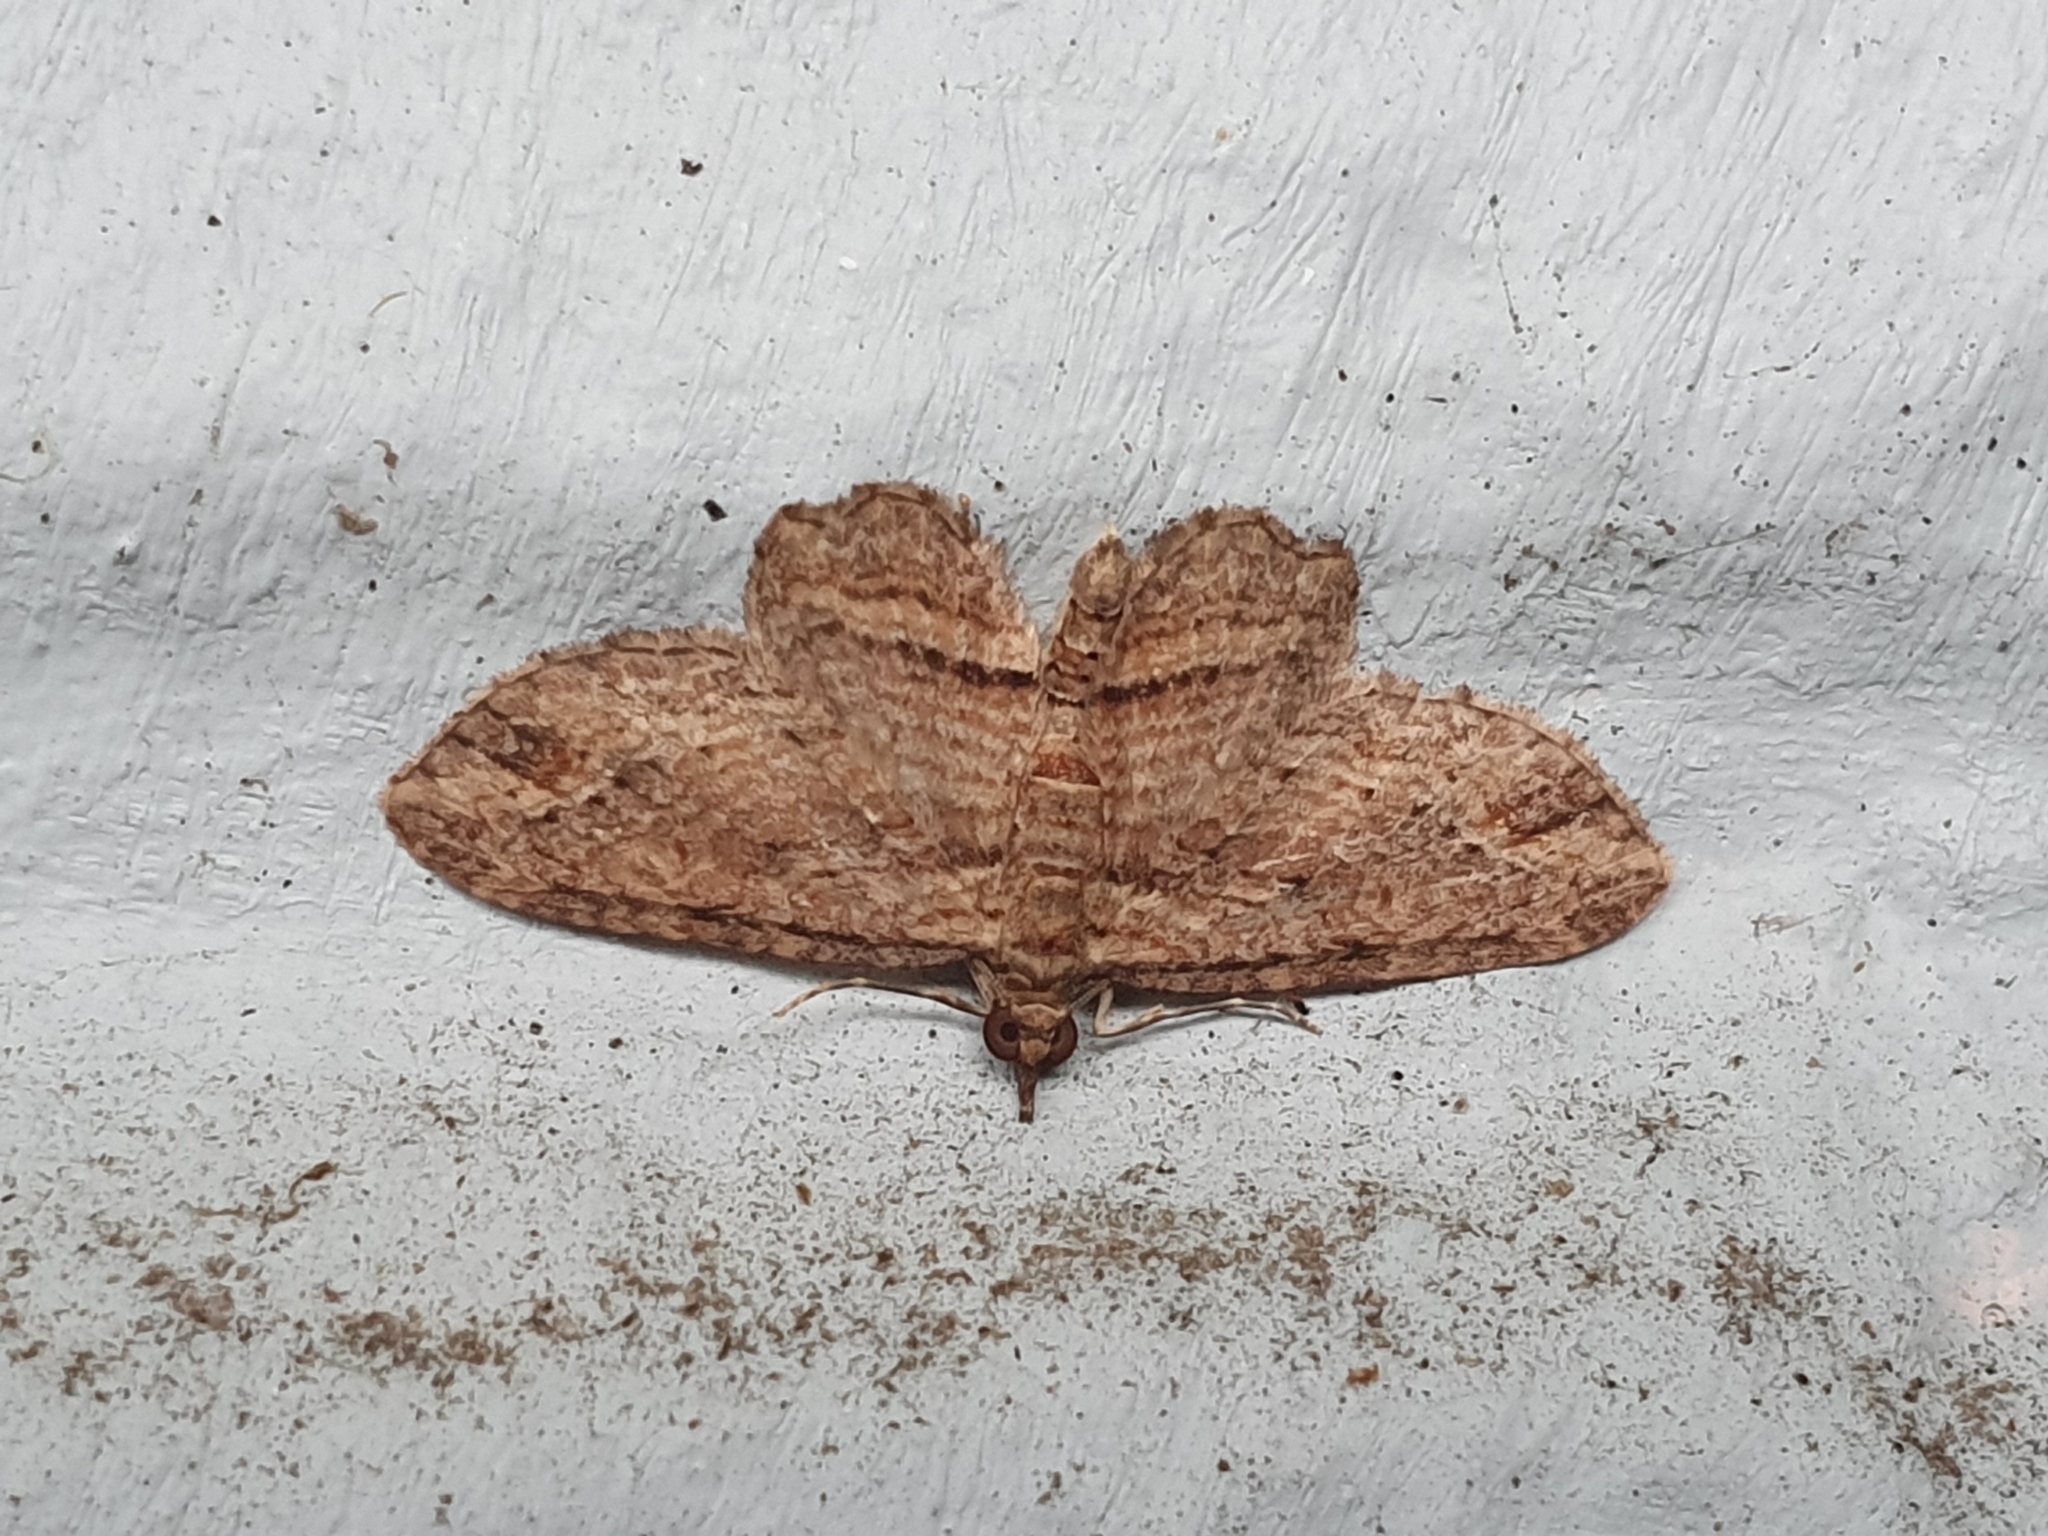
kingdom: Animalia
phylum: Arthropoda
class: Insecta
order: Lepidoptera
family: Geometridae
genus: Chloroclystis
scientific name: Chloroclystis filata
